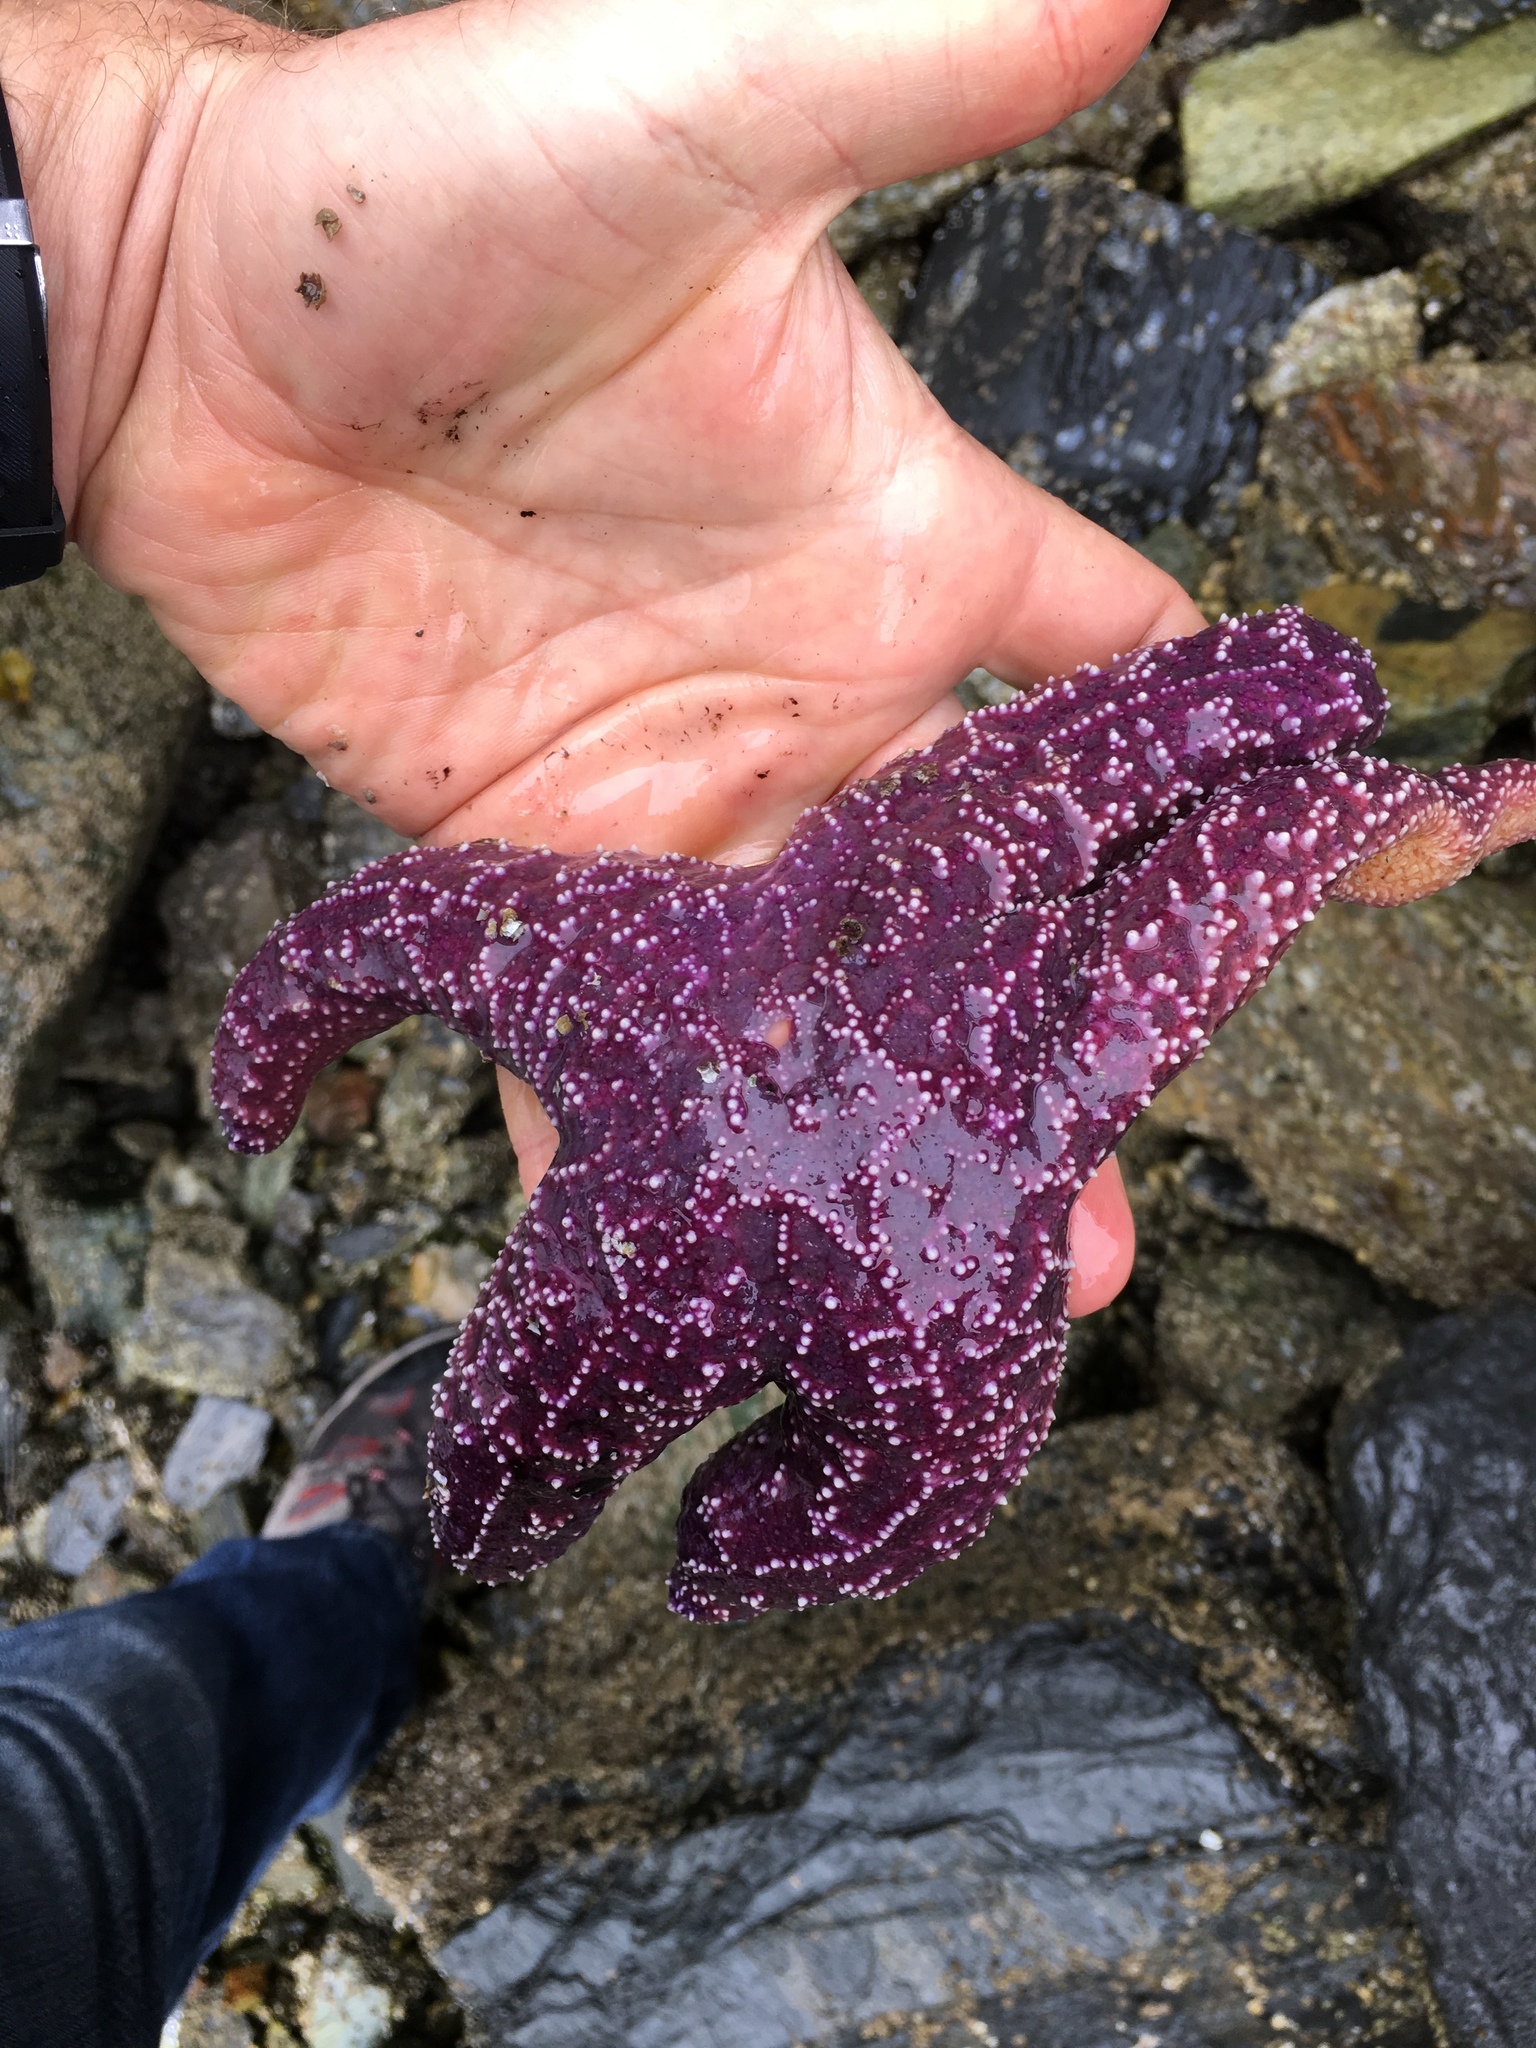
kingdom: Animalia
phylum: Echinodermata
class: Asteroidea
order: Forcipulatida
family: Asteriidae
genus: Pisaster
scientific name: Pisaster ochraceus
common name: Ochre stars
